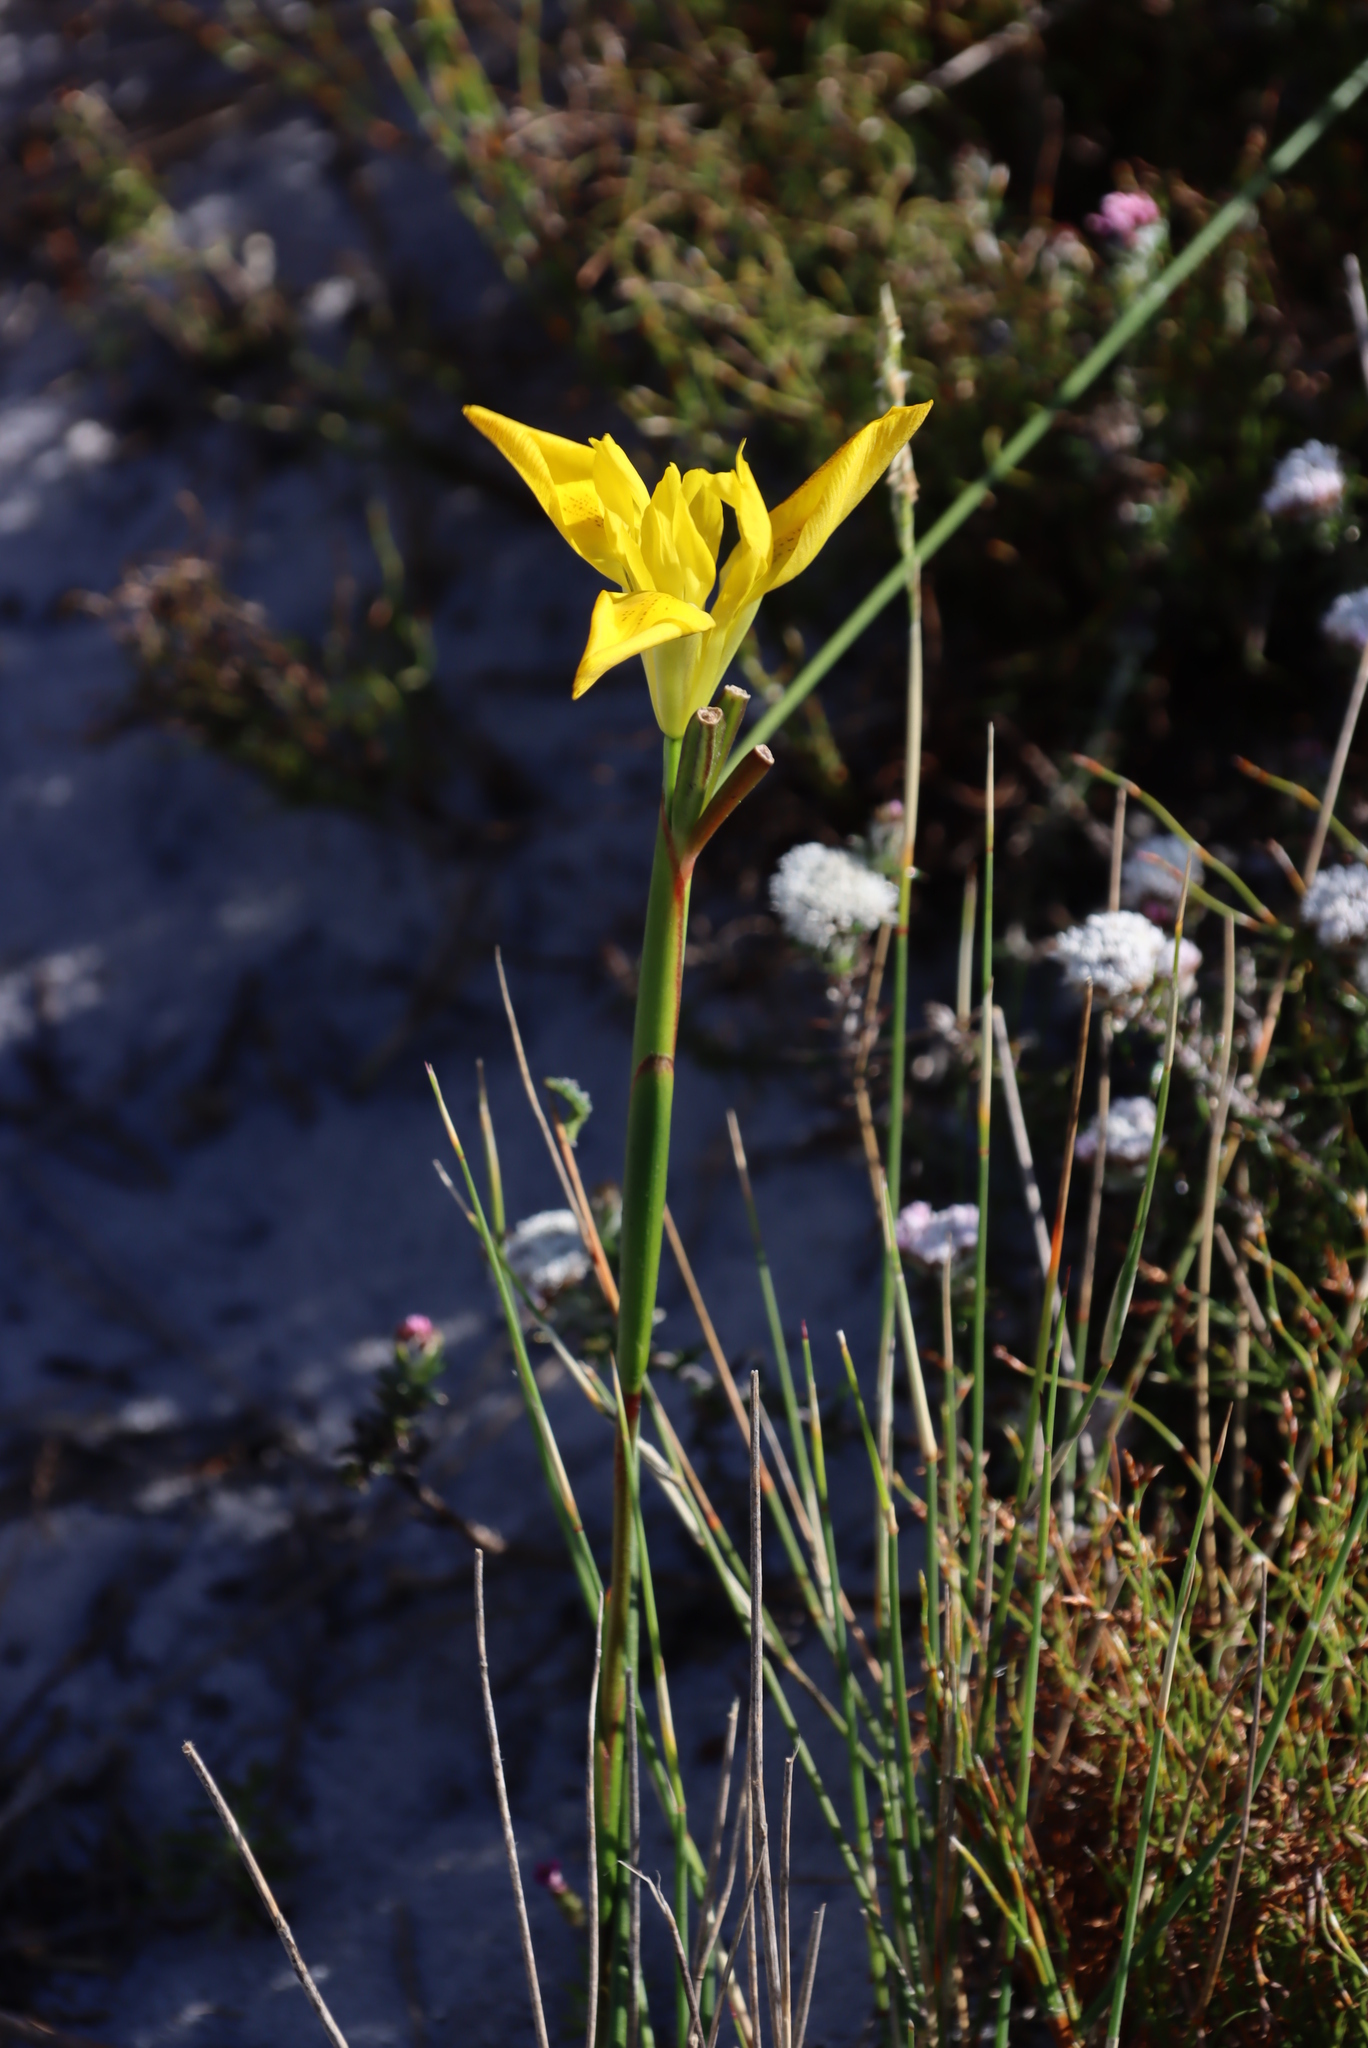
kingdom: Plantae
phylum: Tracheophyta
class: Liliopsida
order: Asparagales
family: Iridaceae
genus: Moraea
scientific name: Moraea neglecta
